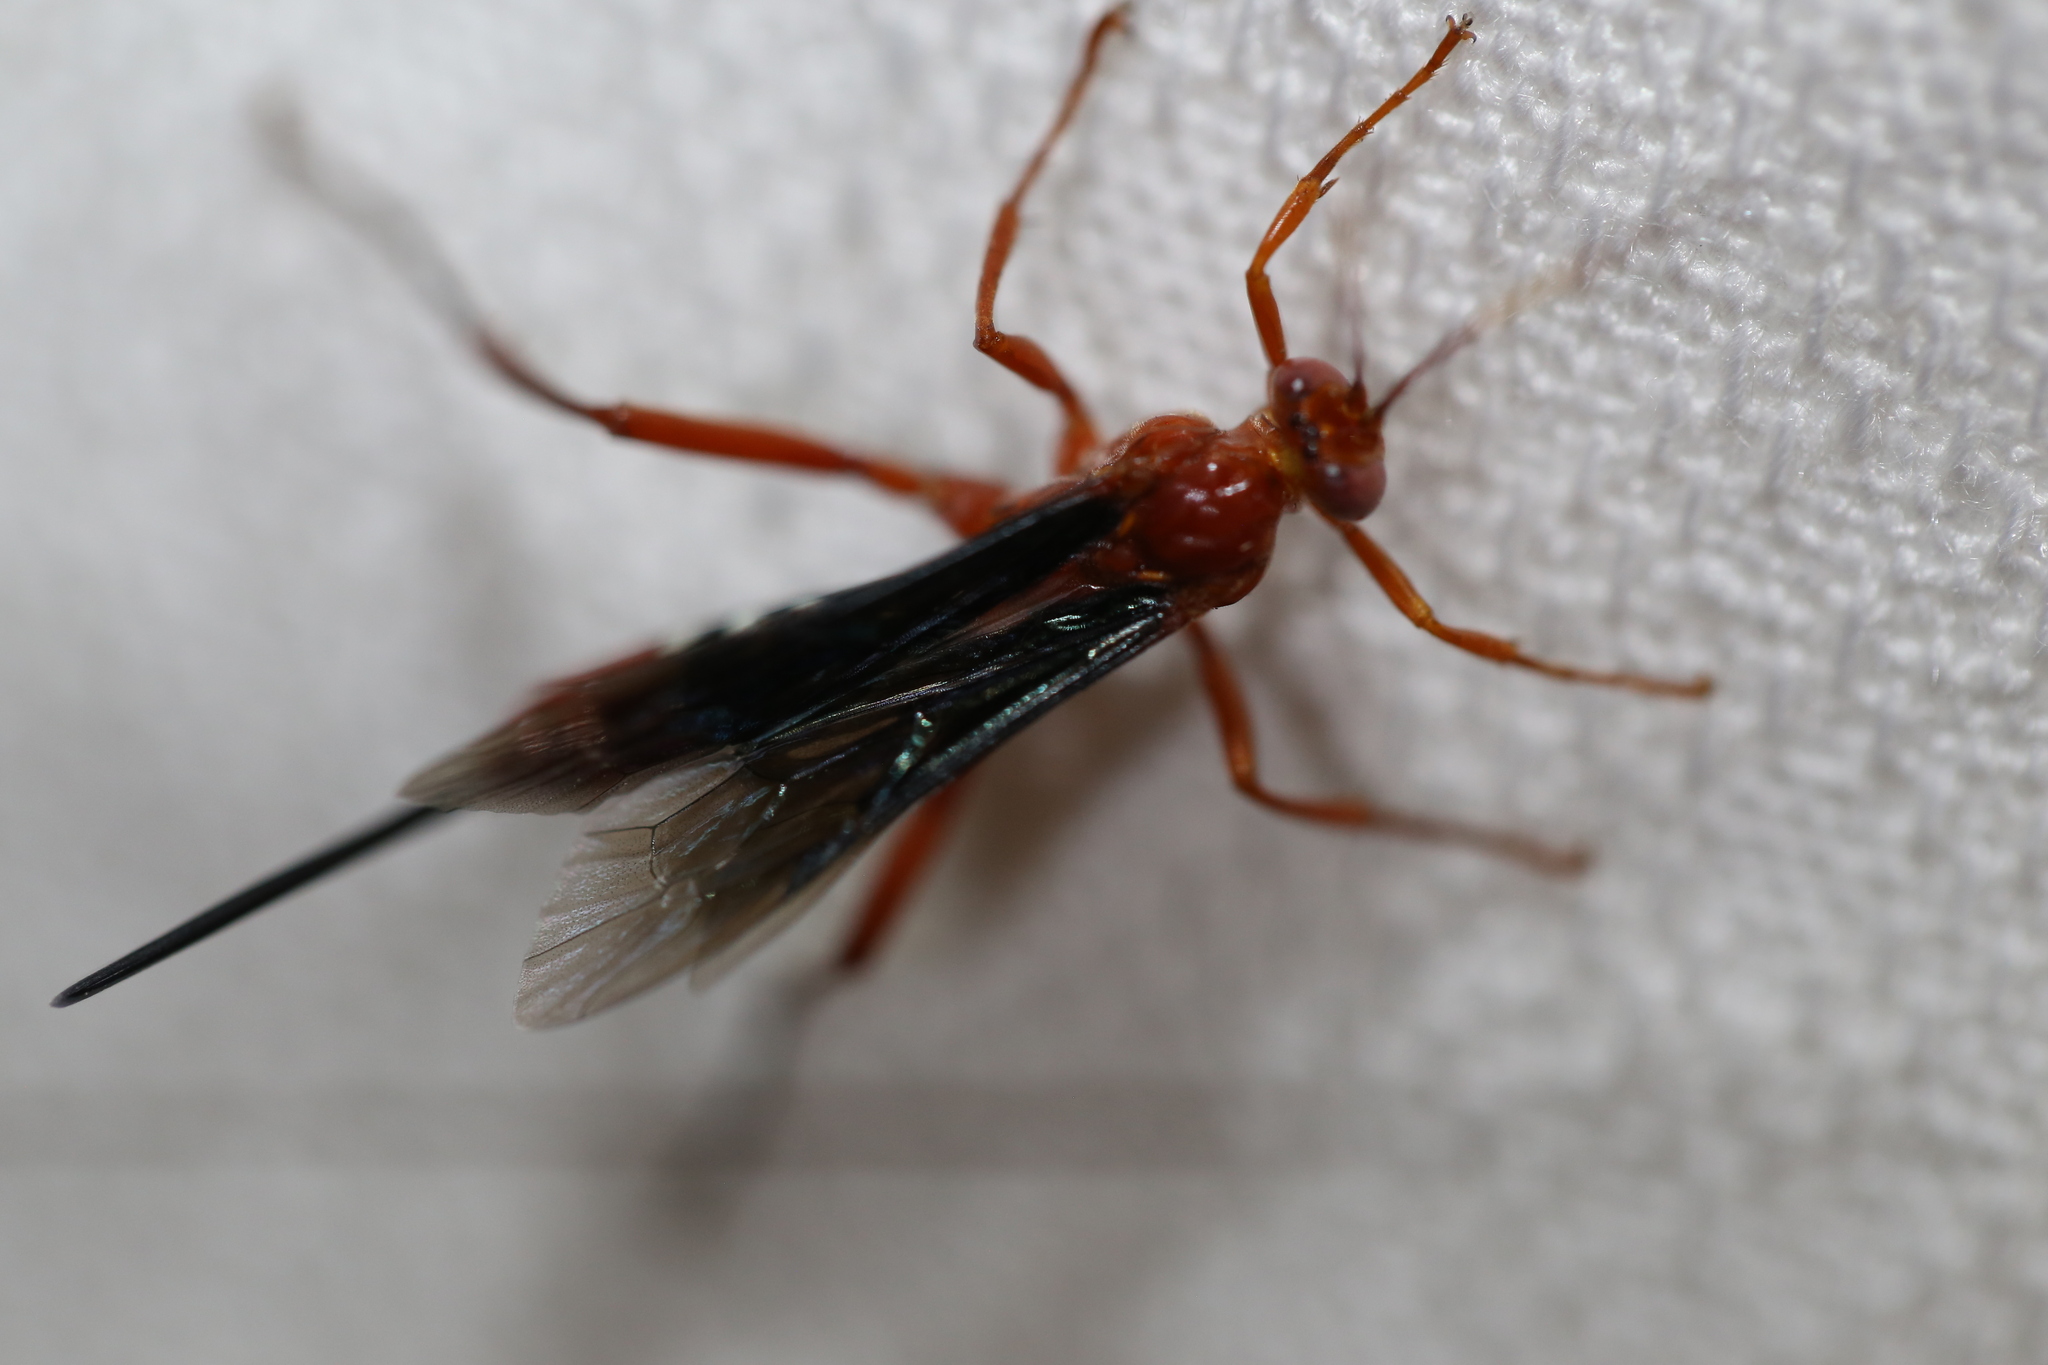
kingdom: Animalia
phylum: Arthropoda
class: Insecta
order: Hymenoptera
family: Ichneumonidae
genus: Lissopimpla
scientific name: Lissopimpla excelsa
